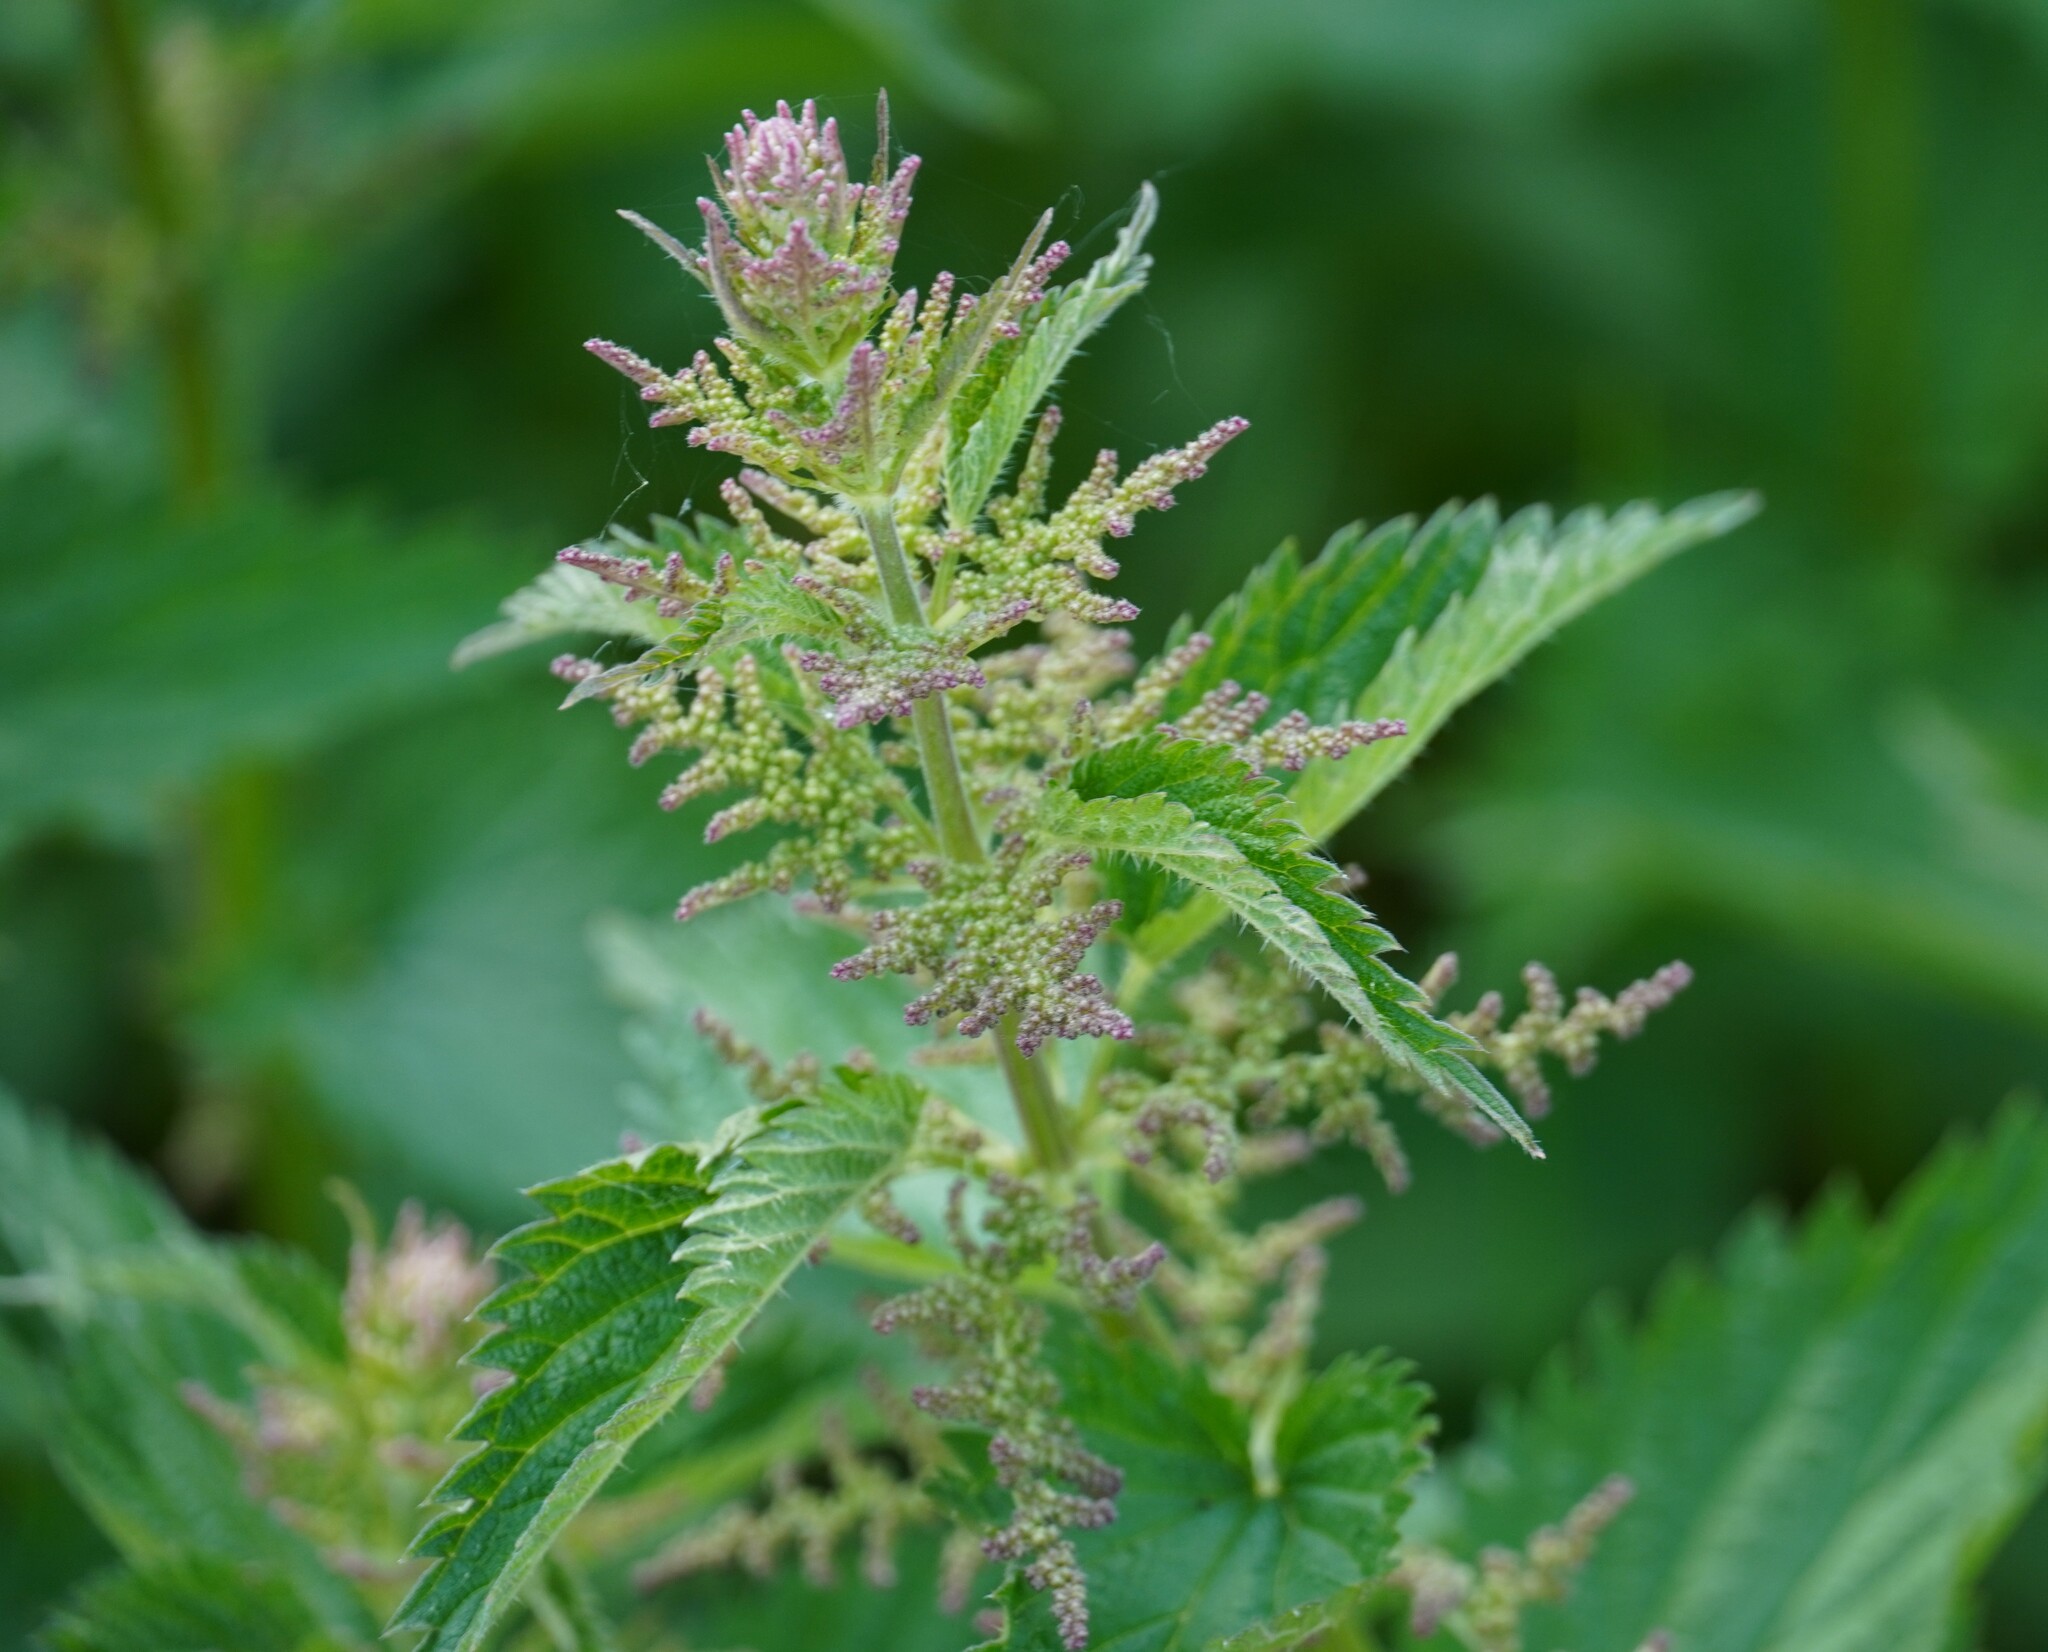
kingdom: Plantae
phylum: Tracheophyta
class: Magnoliopsida
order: Rosales
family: Urticaceae
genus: Urtica
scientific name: Urtica dioica
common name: Common nettle
